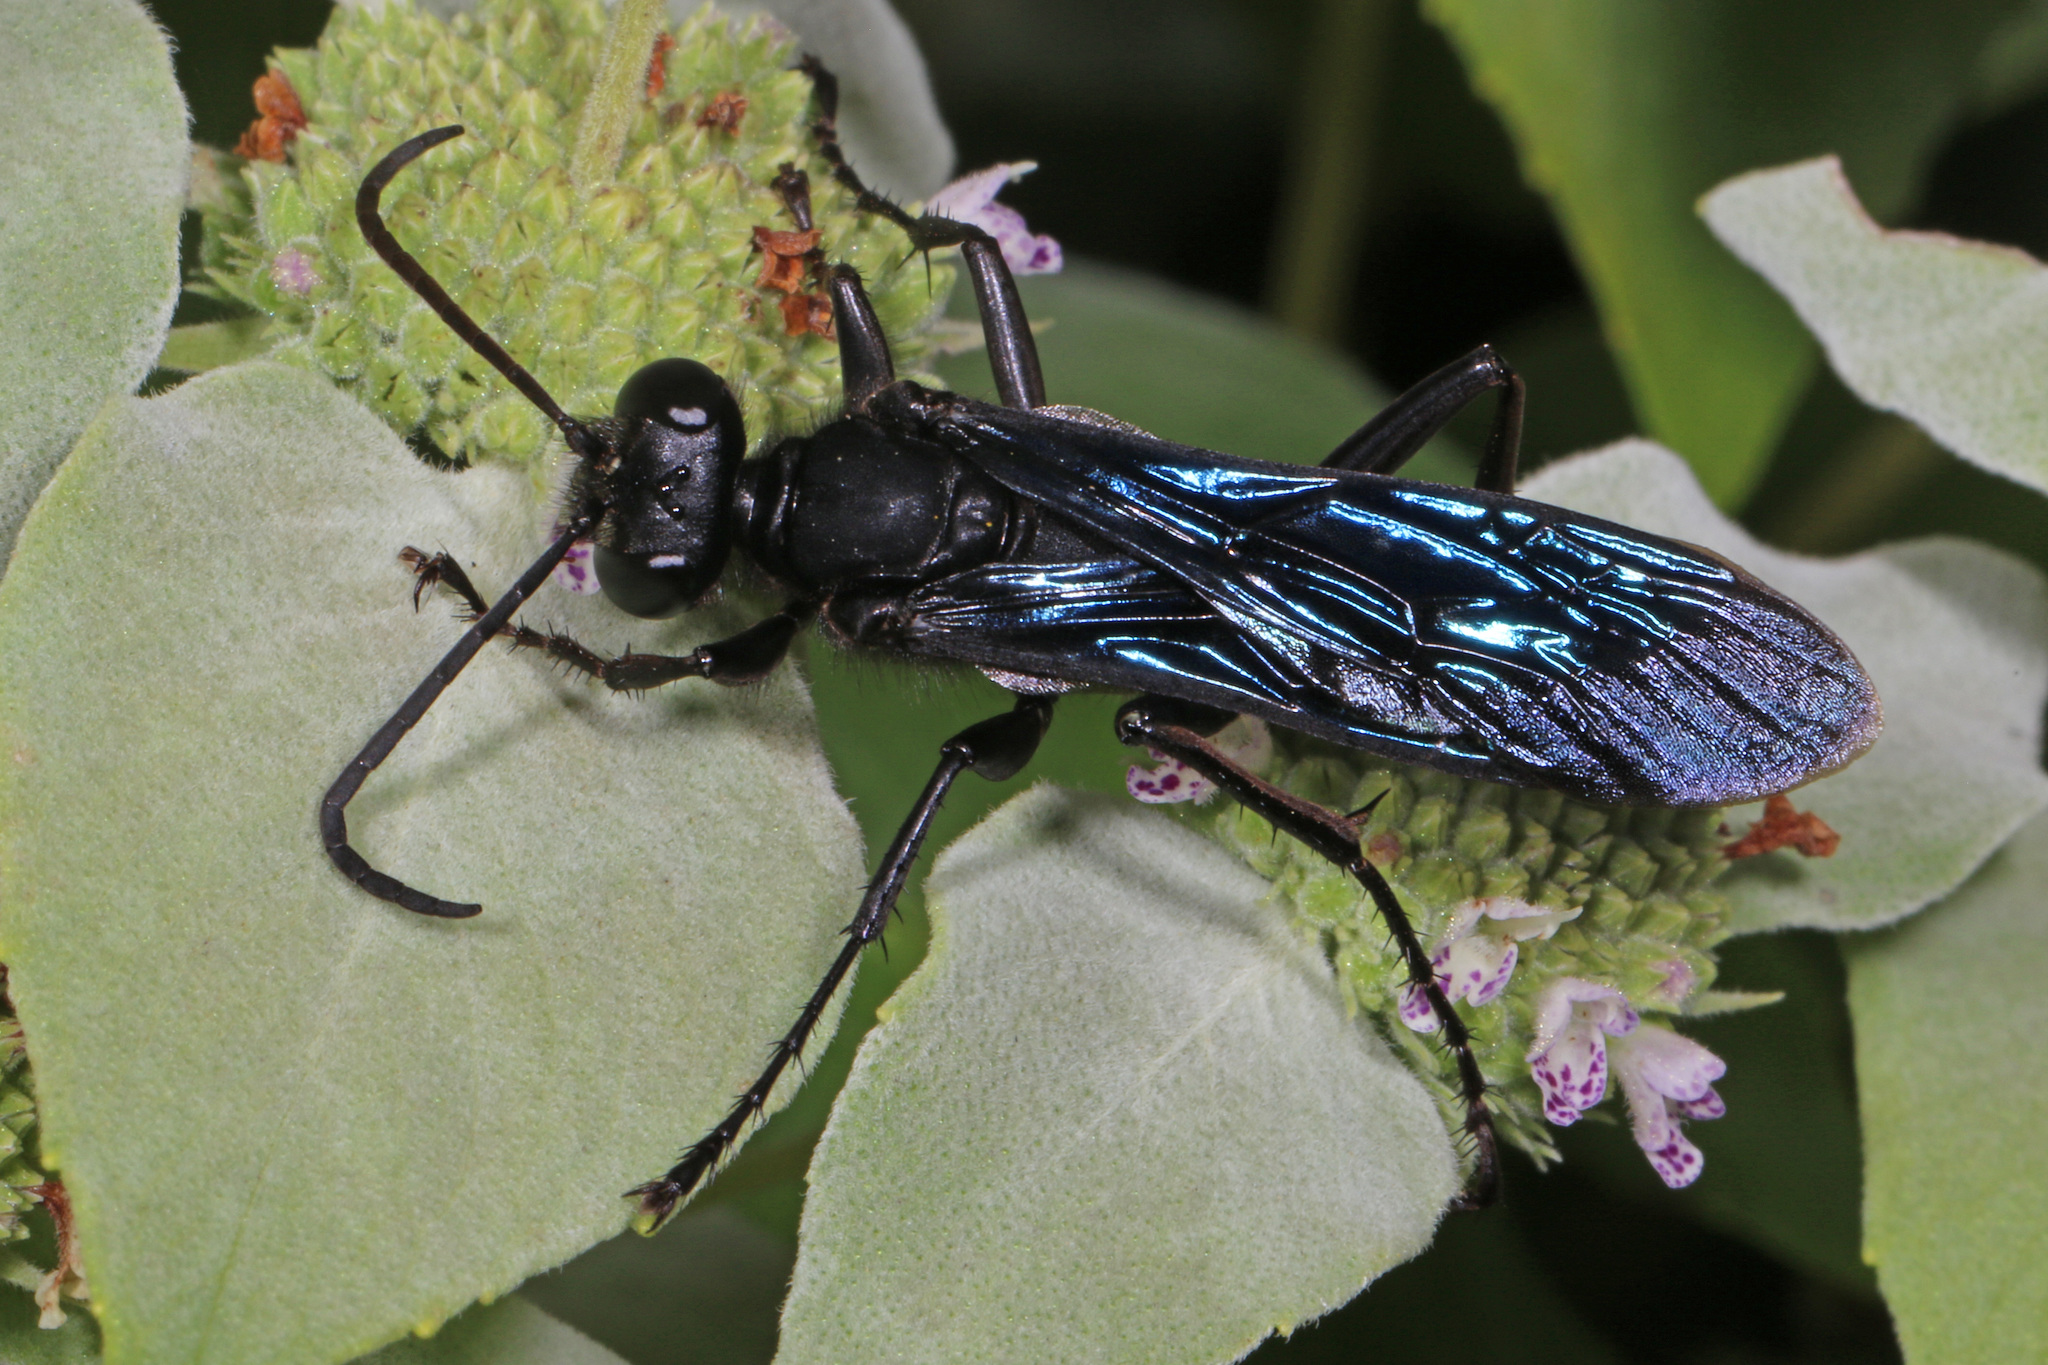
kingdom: Animalia
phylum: Arthropoda
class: Insecta
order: Hymenoptera
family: Sphecidae
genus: Sphex
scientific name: Sphex pensylvanicus
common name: Great black digger wasp
